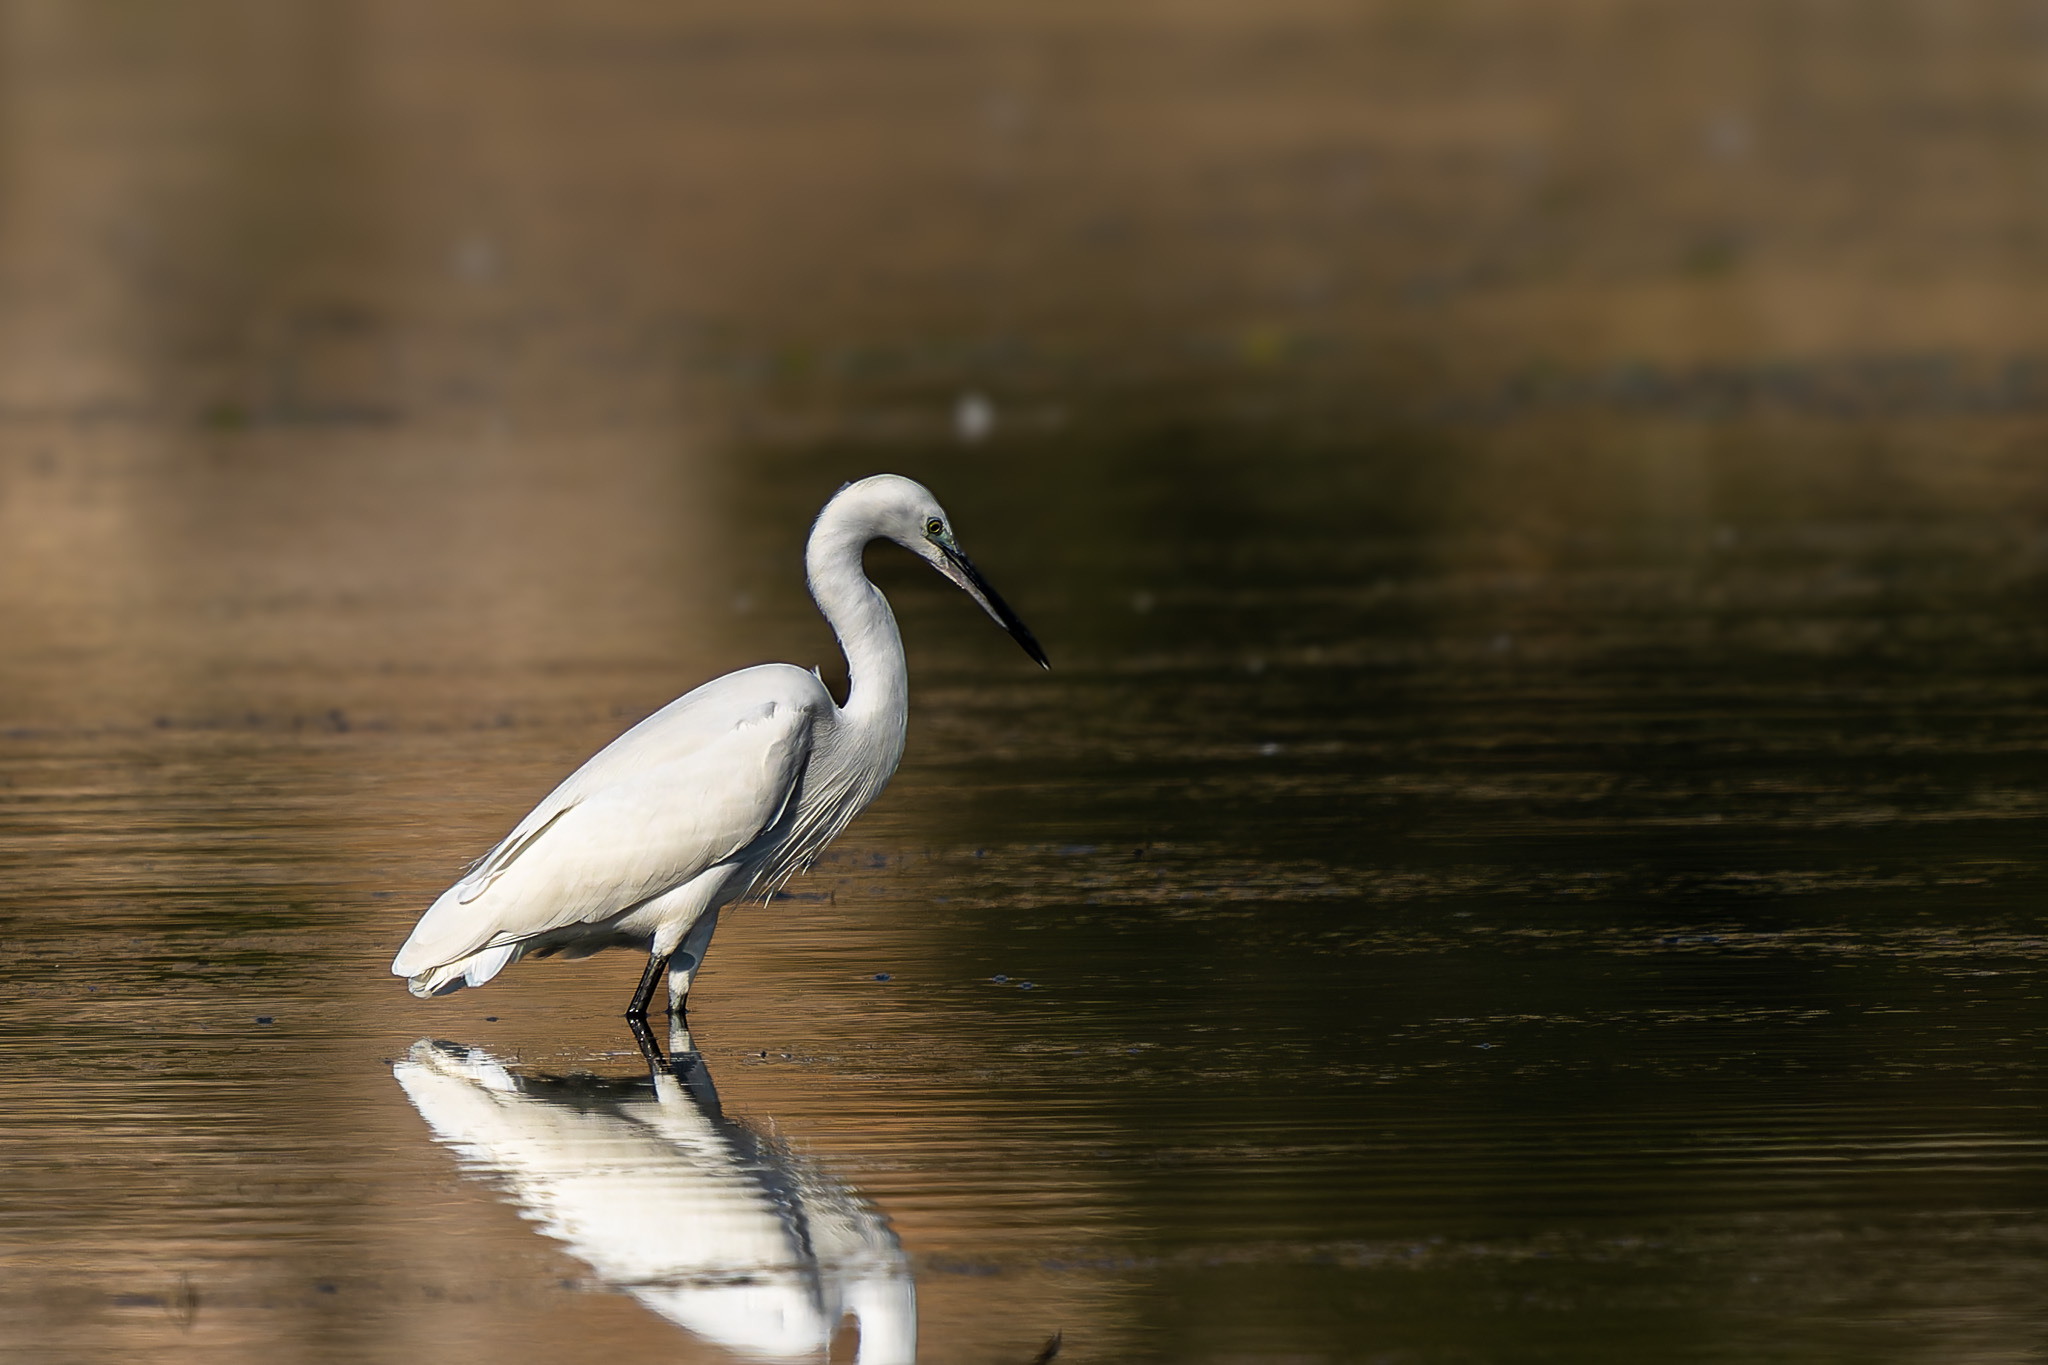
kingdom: Animalia
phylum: Chordata
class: Aves
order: Pelecaniformes
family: Ardeidae
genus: Egretta
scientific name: Egretta garzetta
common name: Little egret
